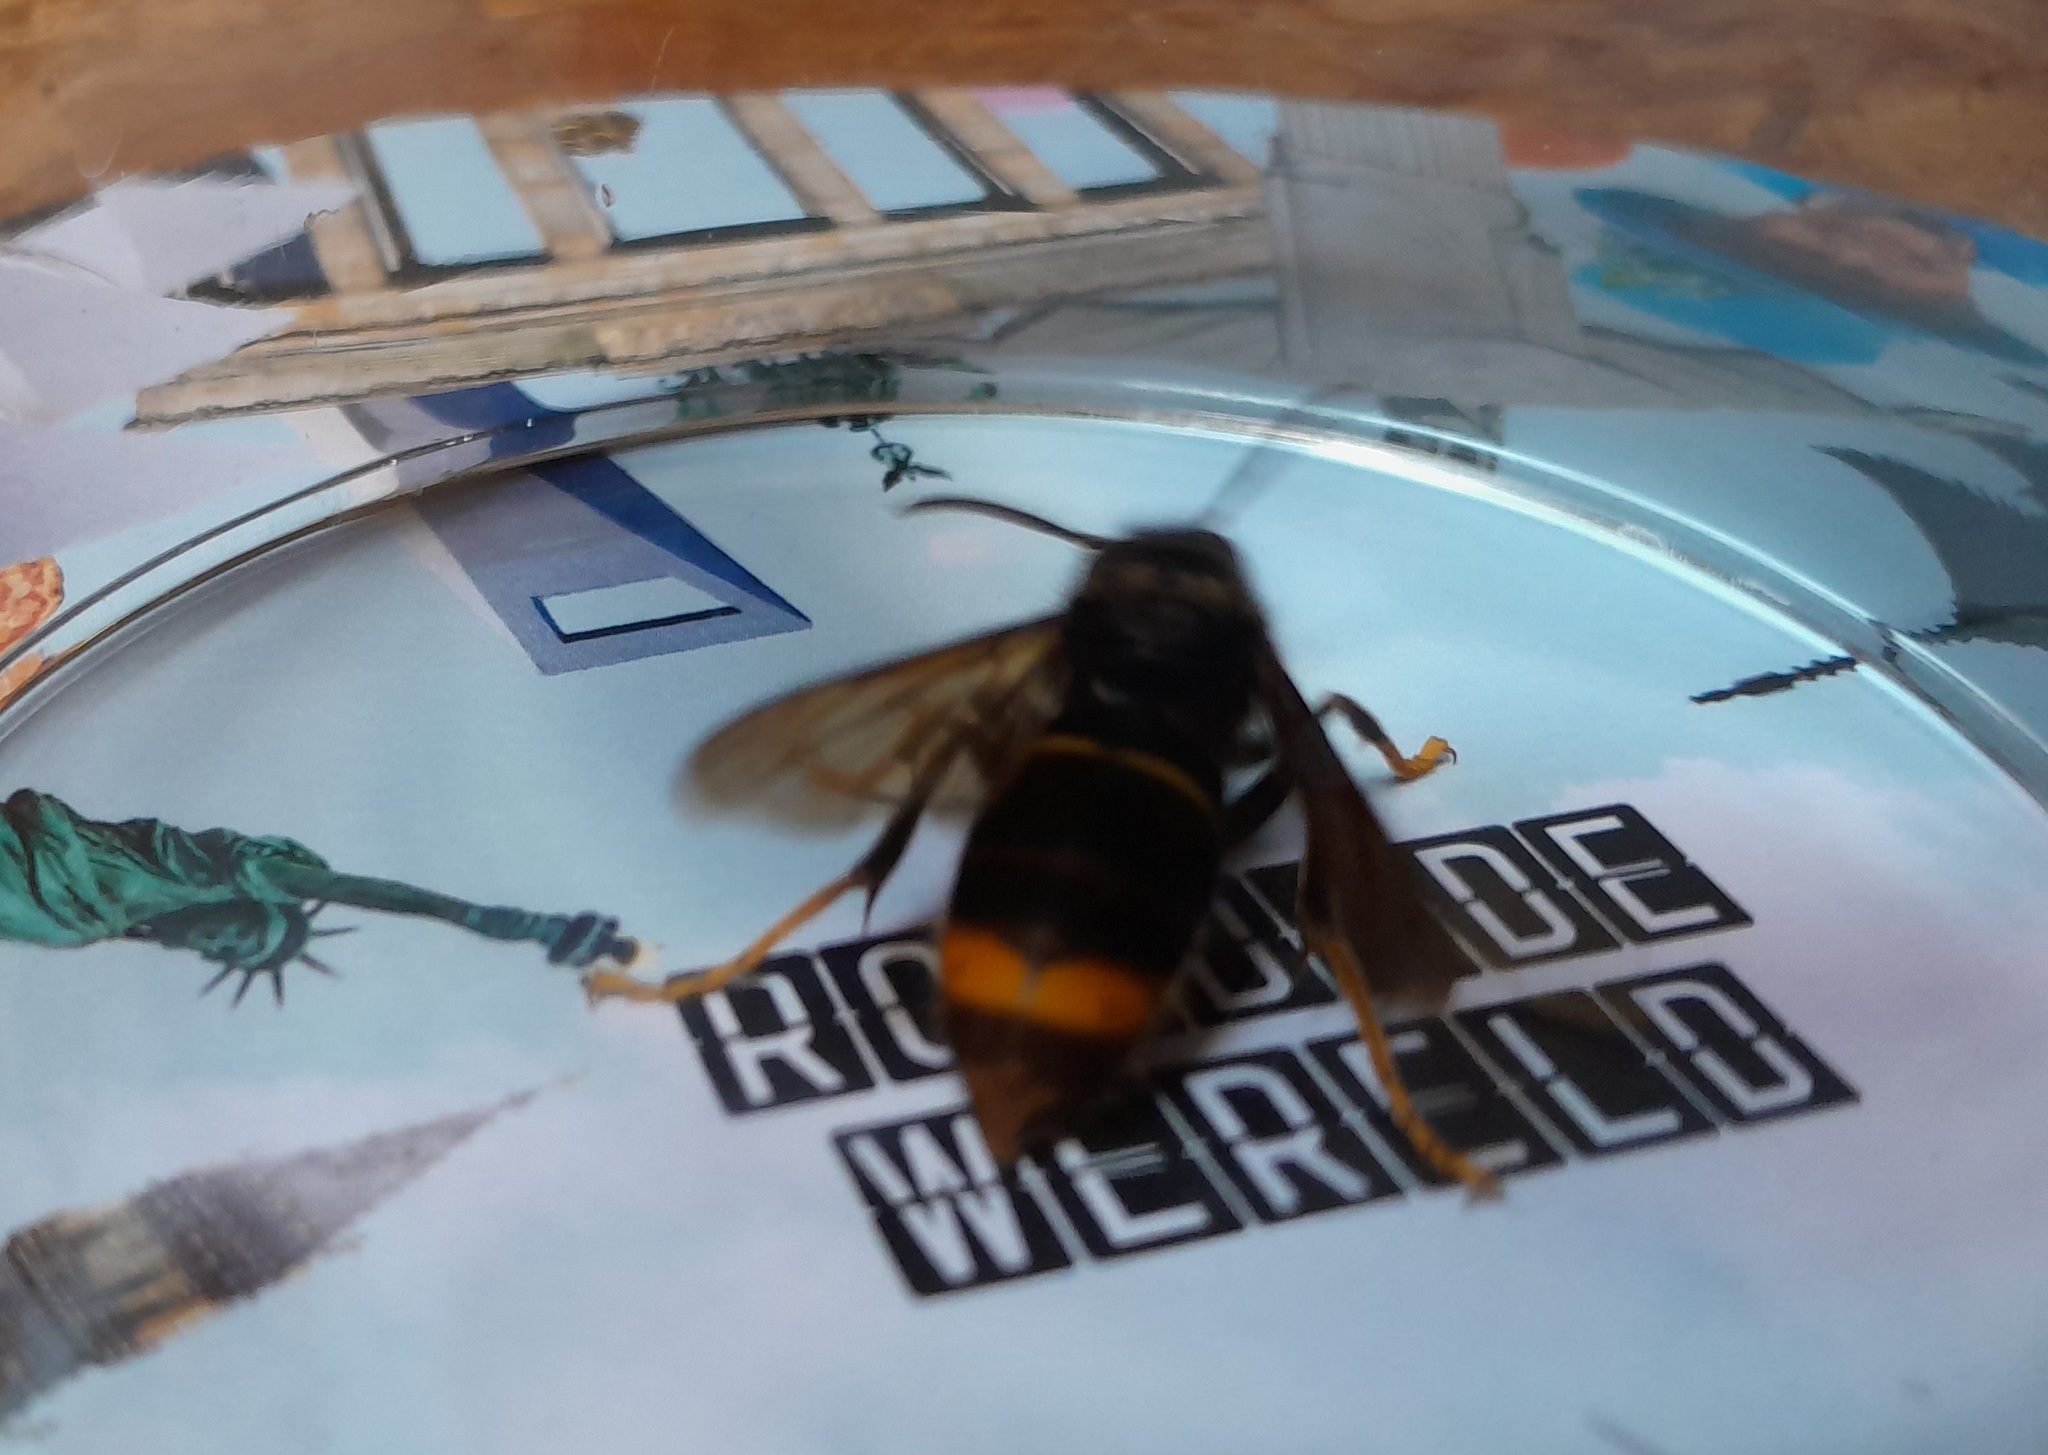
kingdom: Animalia
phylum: Arthropoda
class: Insecta
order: Hymenoptera
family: Vespidae
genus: Vespa
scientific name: Vespa velutina
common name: Asian hornet
